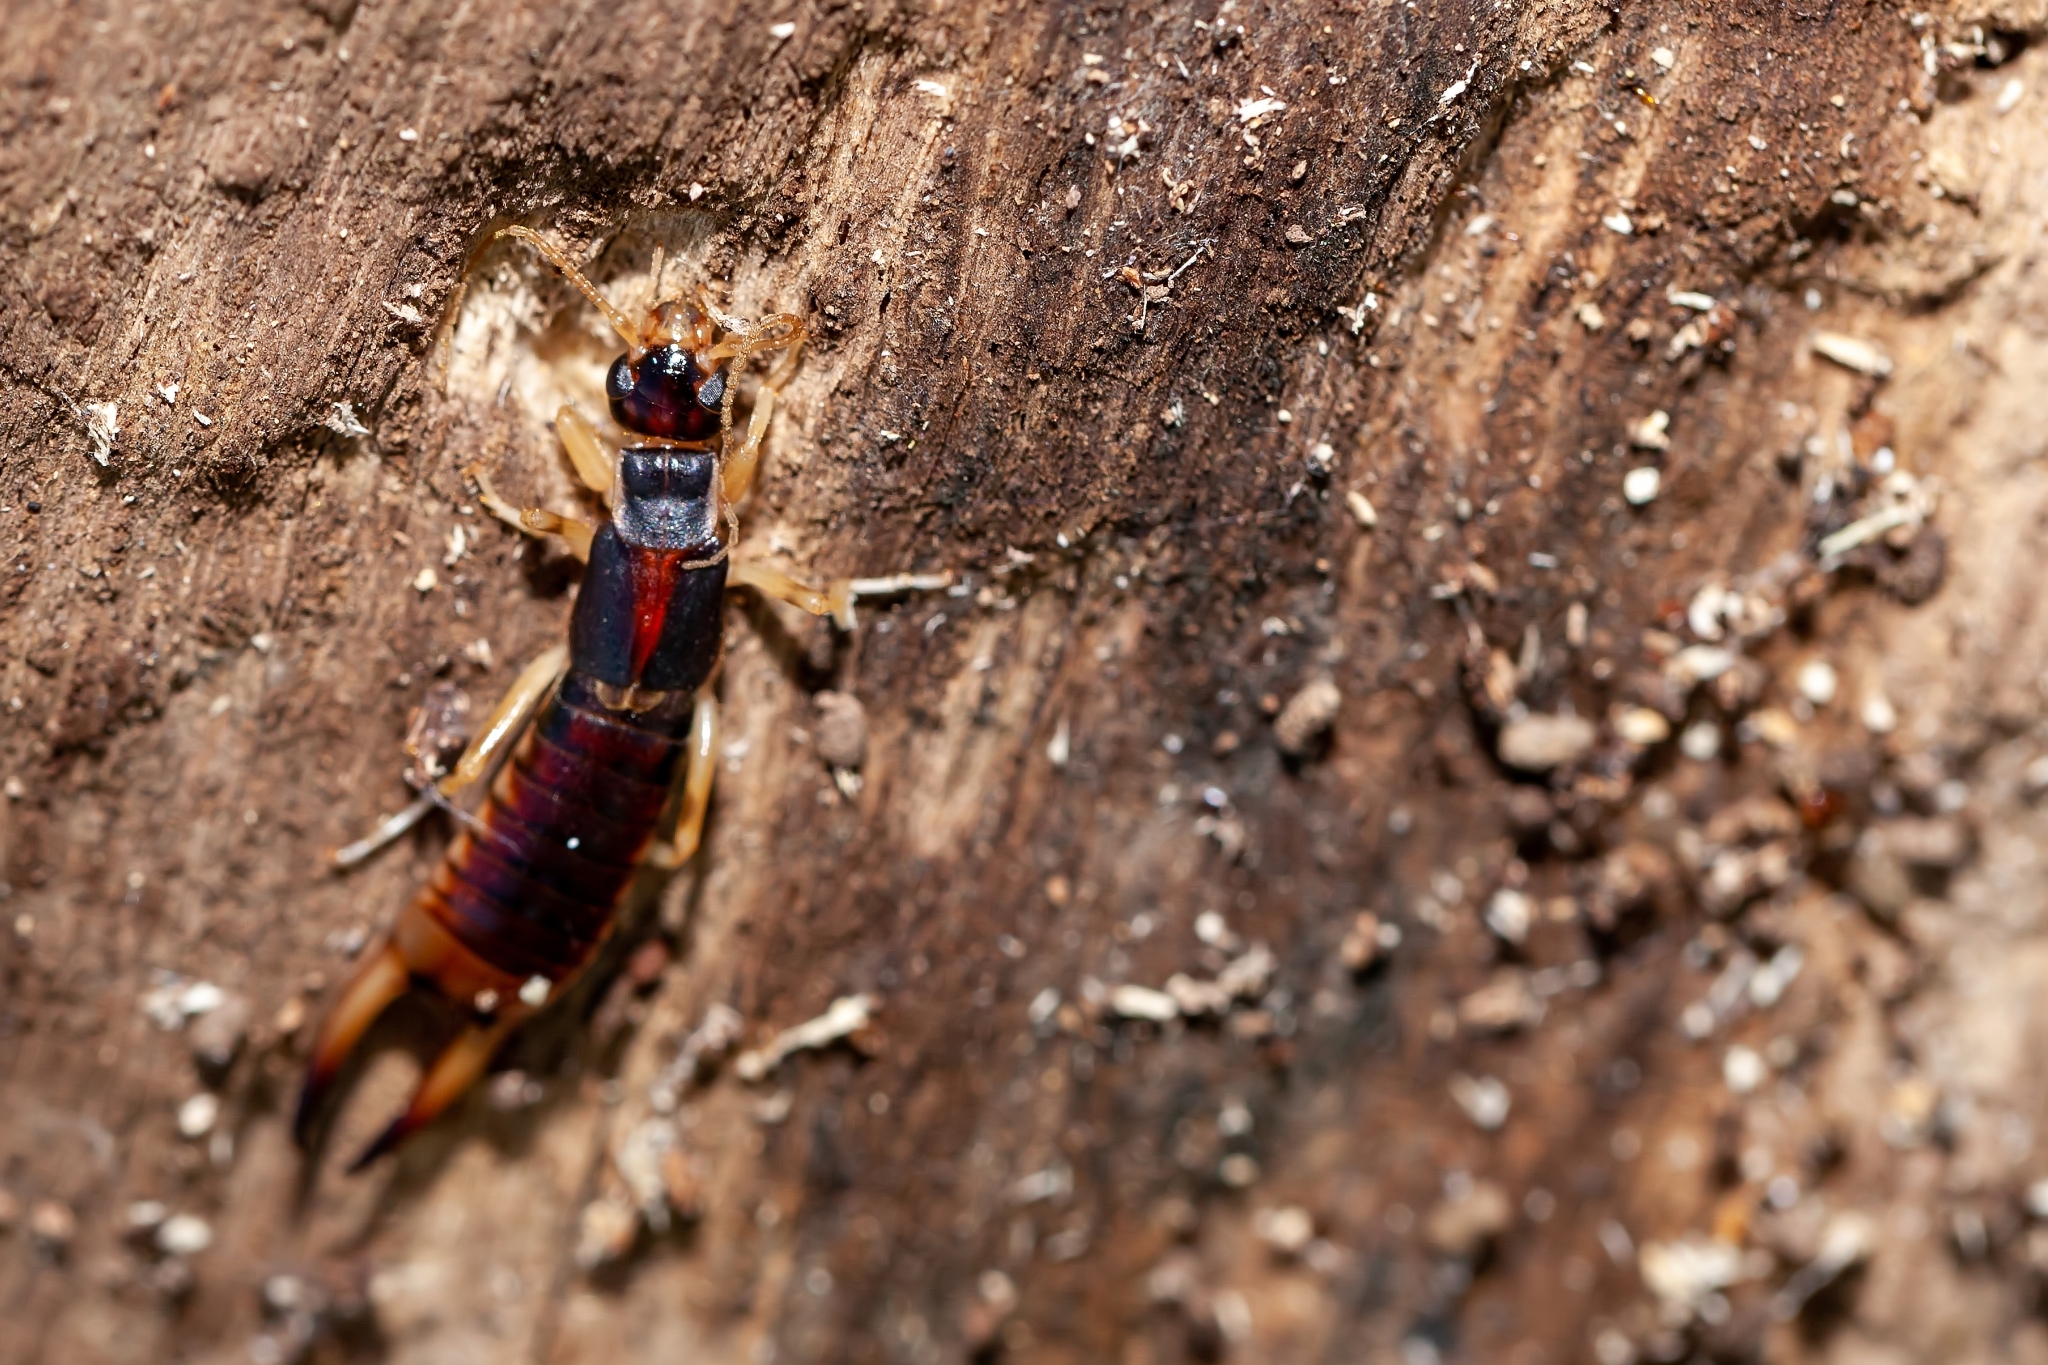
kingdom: Animalia
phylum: Arthropoda
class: Insecta
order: Dermaptera
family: Labiduridae
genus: Labidura
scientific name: Labidura riparia
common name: Striped earwig
